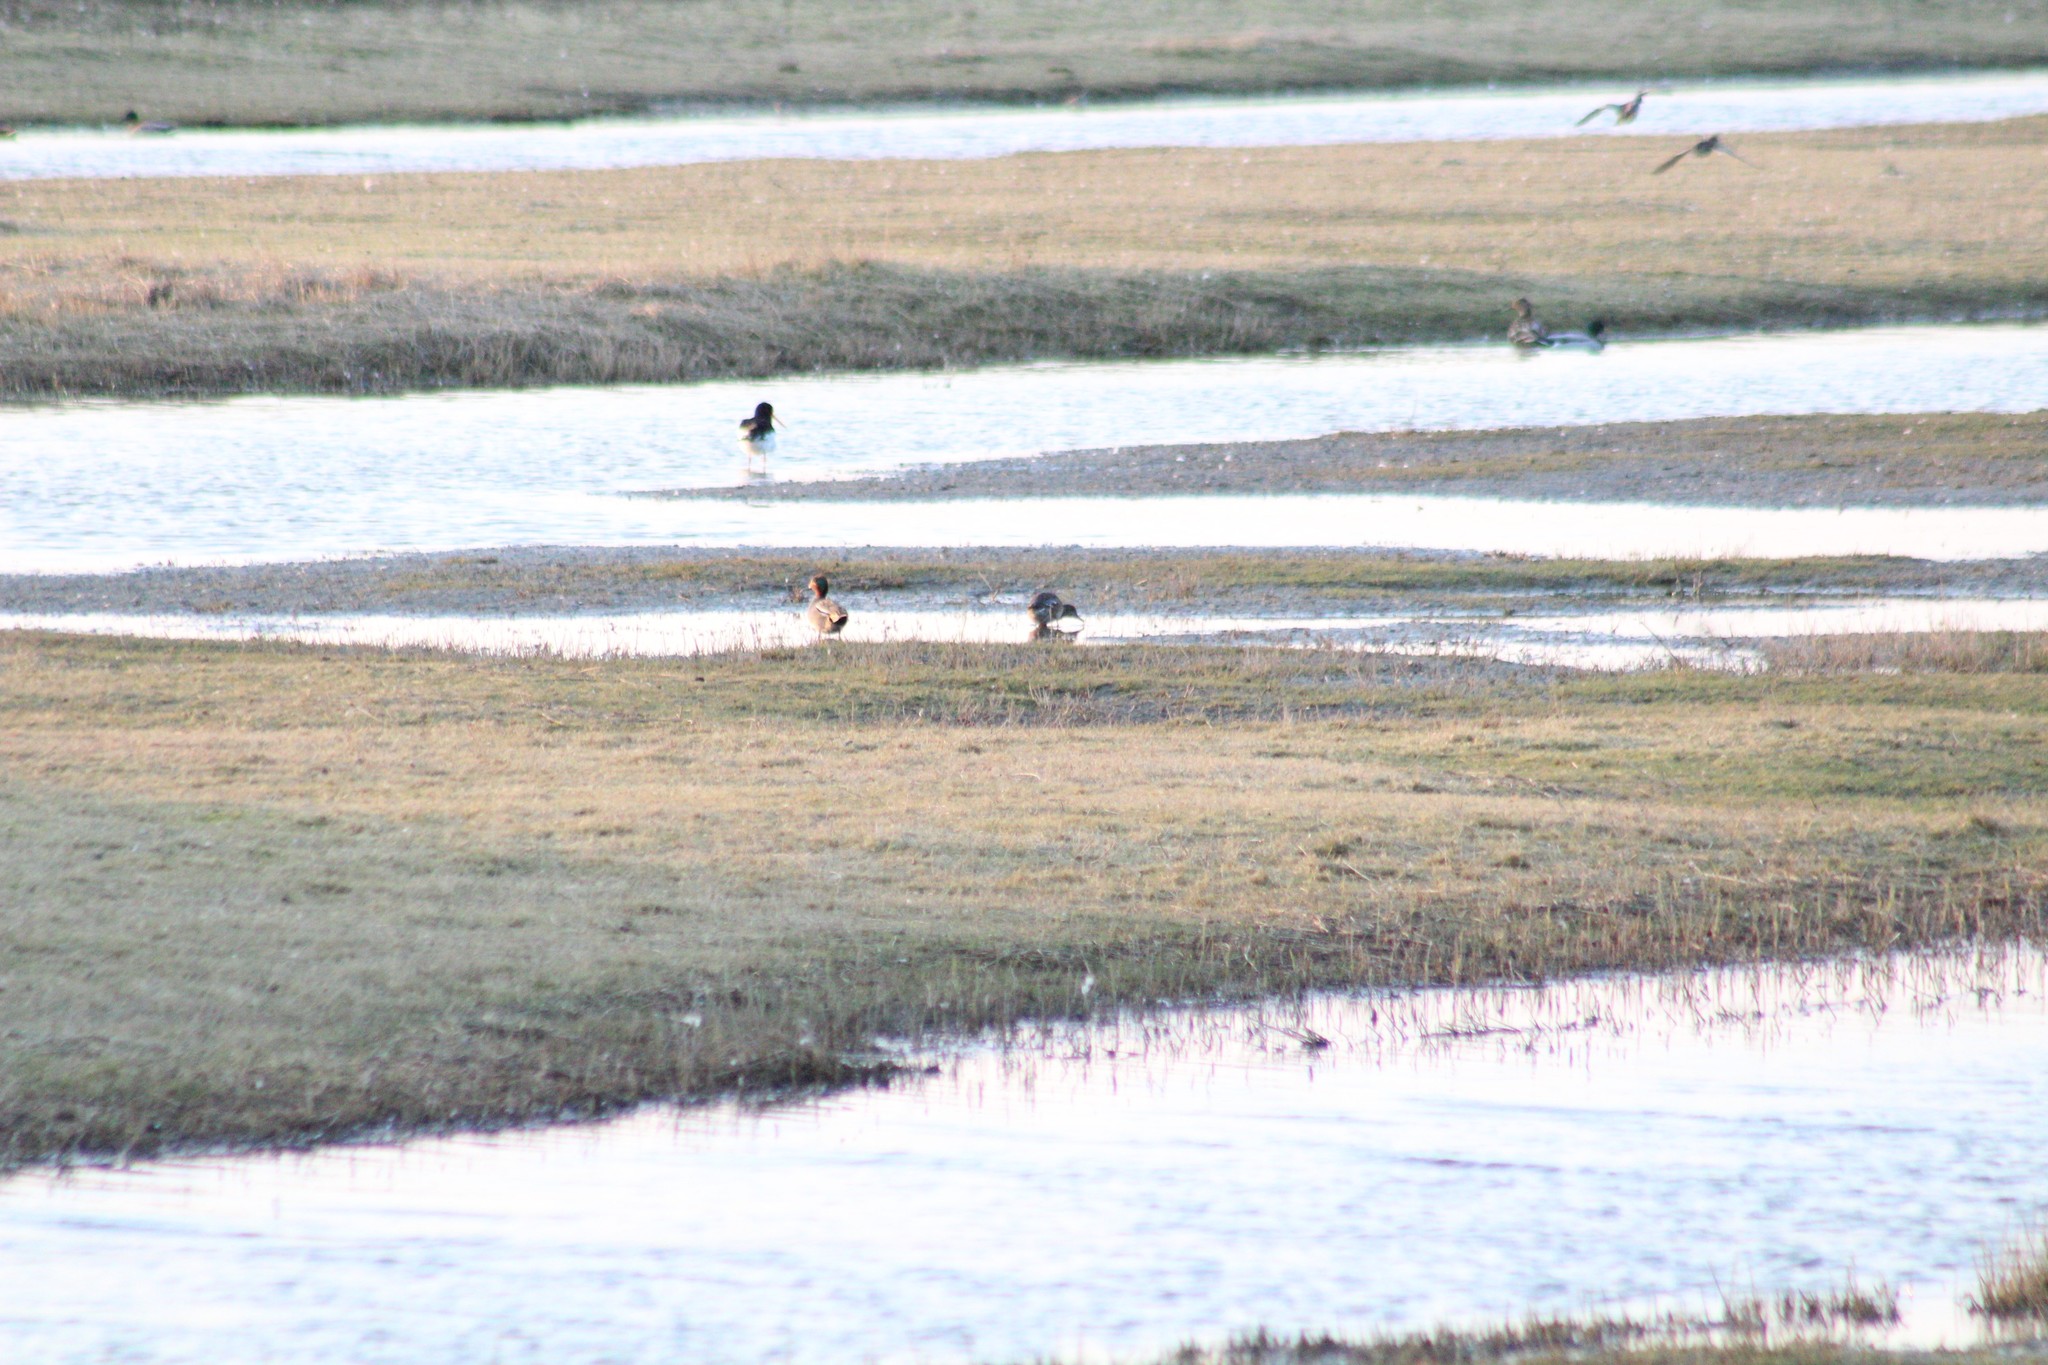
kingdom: Animalia
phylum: Chordata
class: Aves
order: Anseriformes
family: Anatidae
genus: Anas
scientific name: Anas crecca
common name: Eurasian teal
